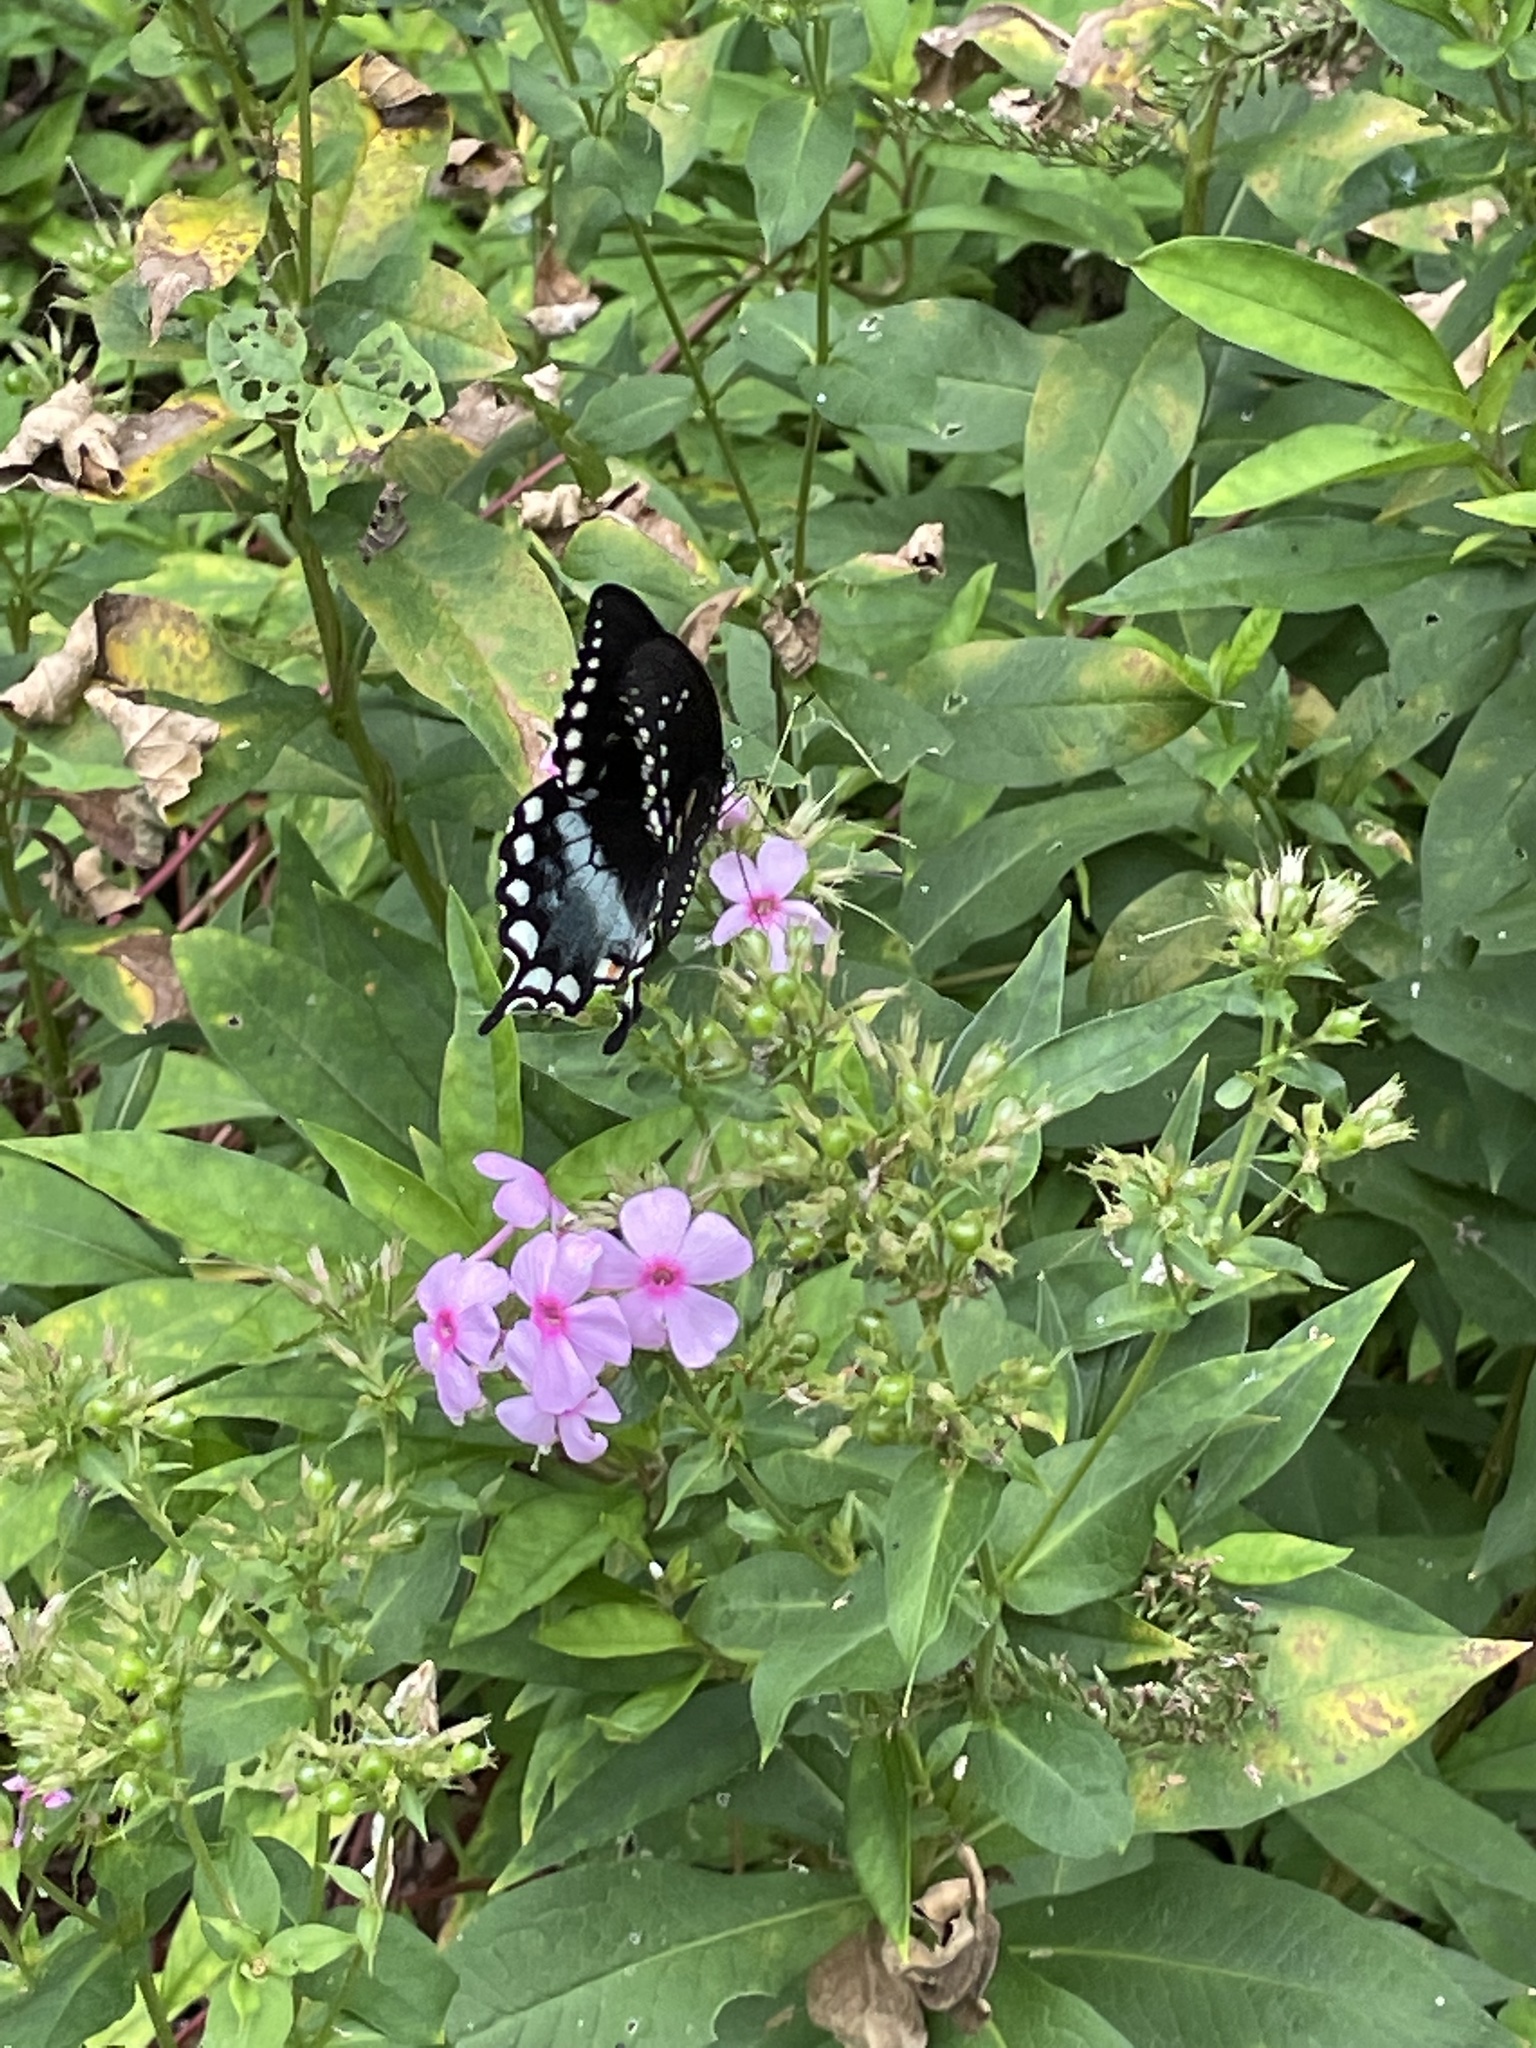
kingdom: Animalia
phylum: Arthropoda
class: Insecta
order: Lepidoptera
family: Papilionidae
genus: Papilio
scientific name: Papilio troilus
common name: Spicebush swallowtail
